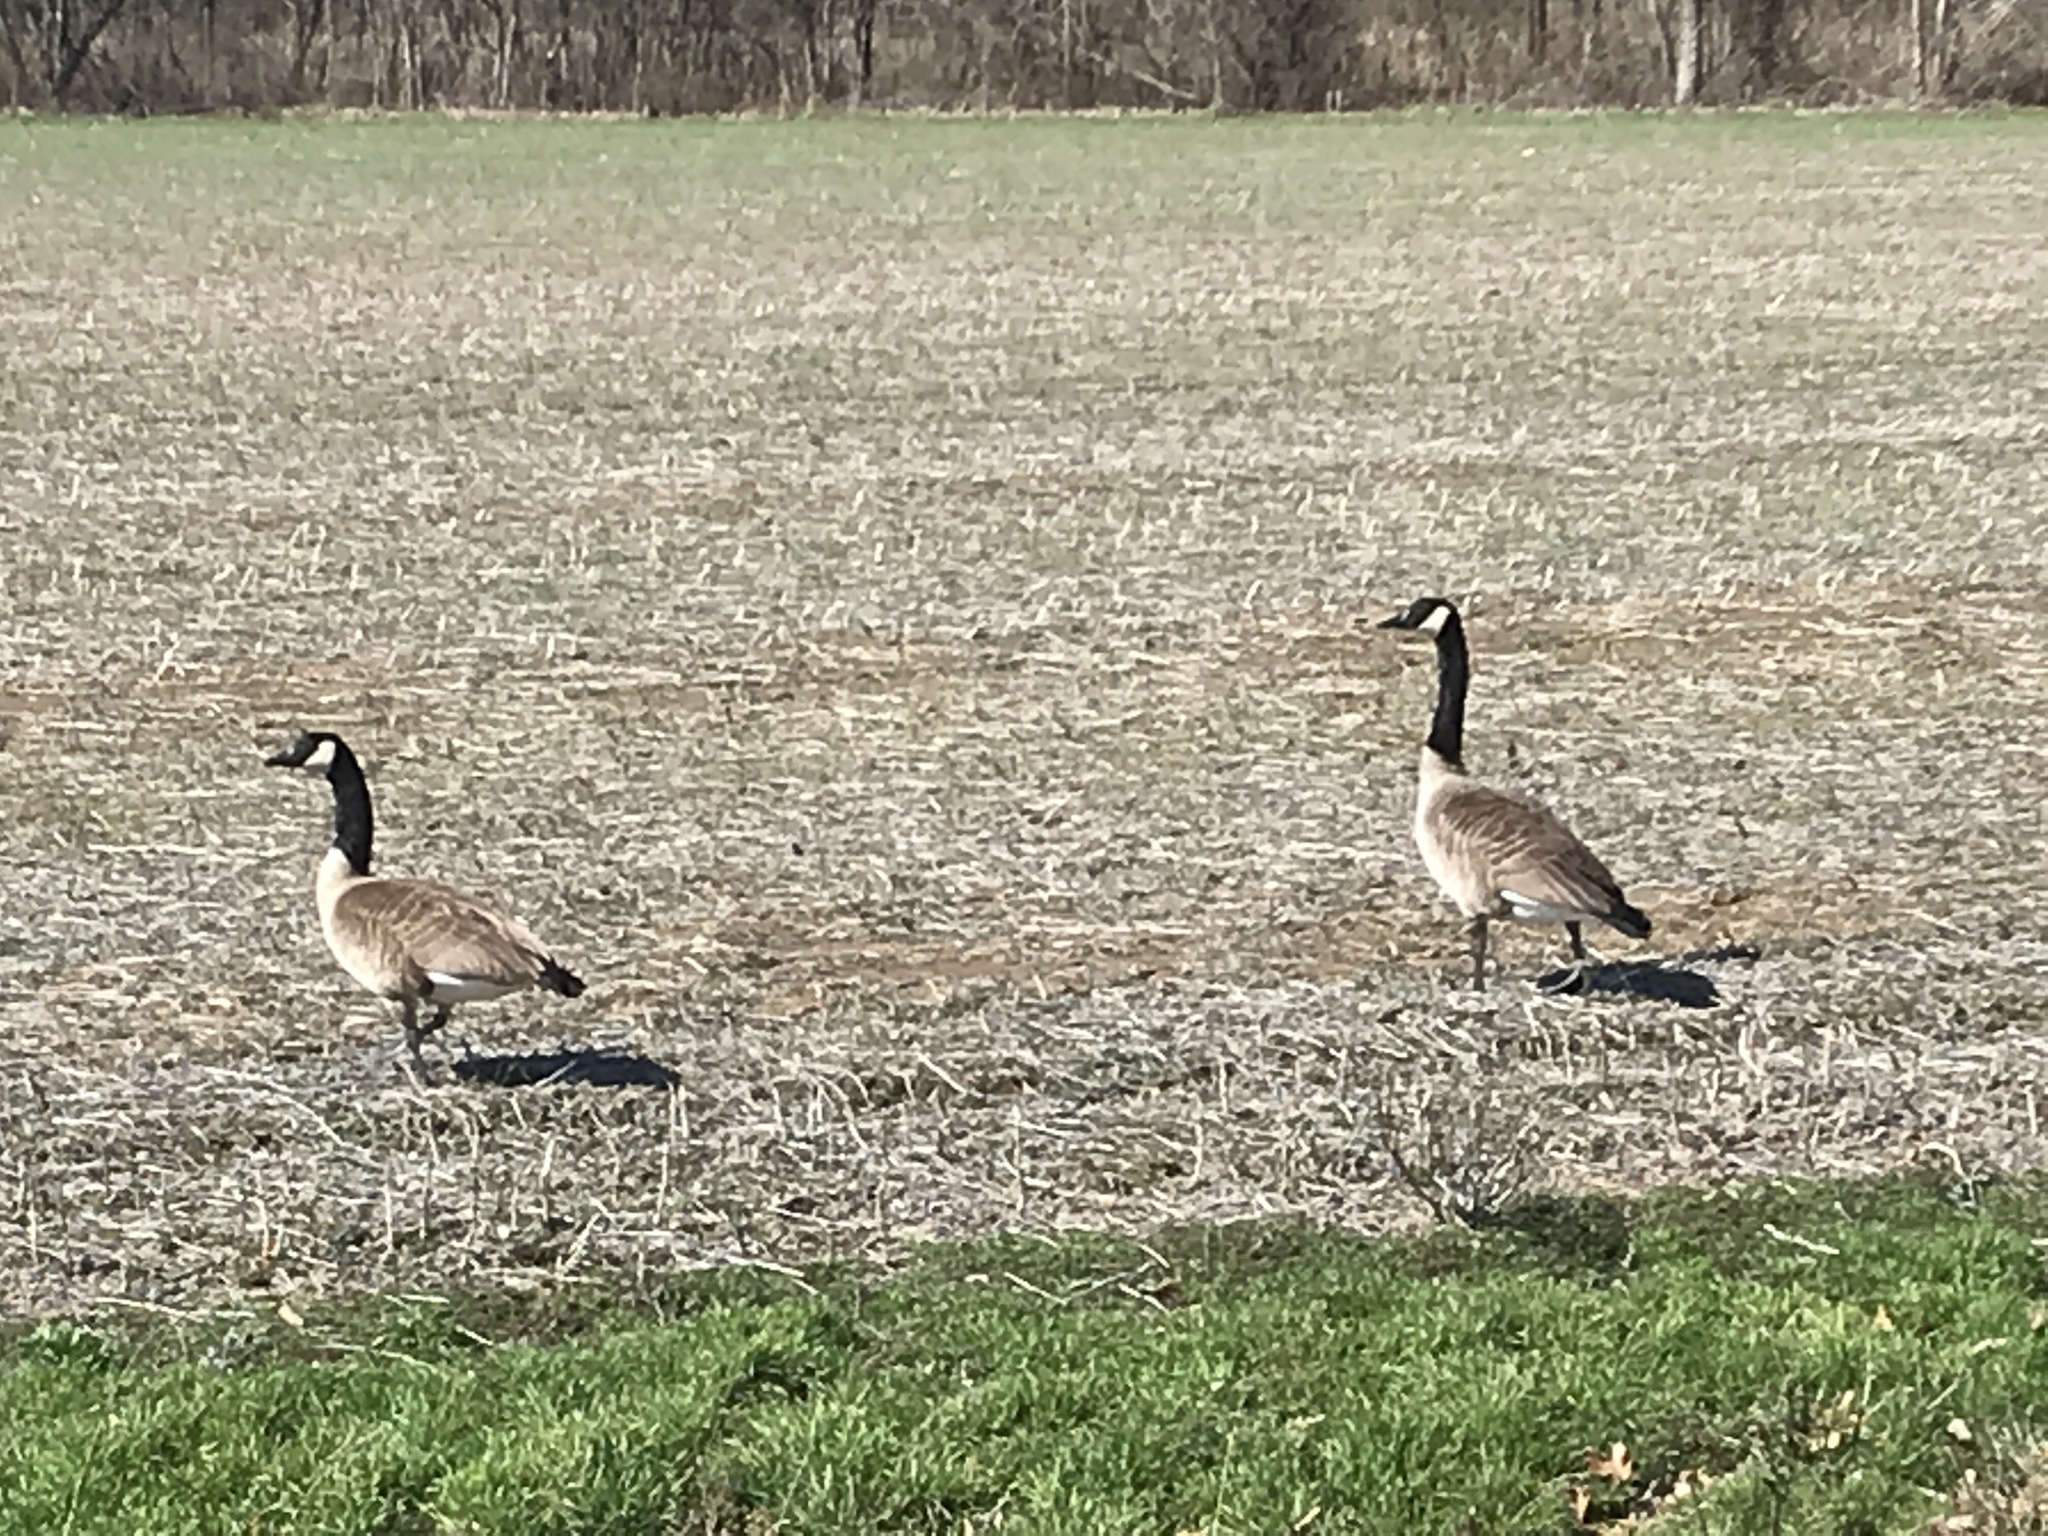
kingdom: Animalia
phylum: Chordata
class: Aves
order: Anseriformes
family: Anatidae
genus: Branta
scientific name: Branta canadensis
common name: Canada goose
